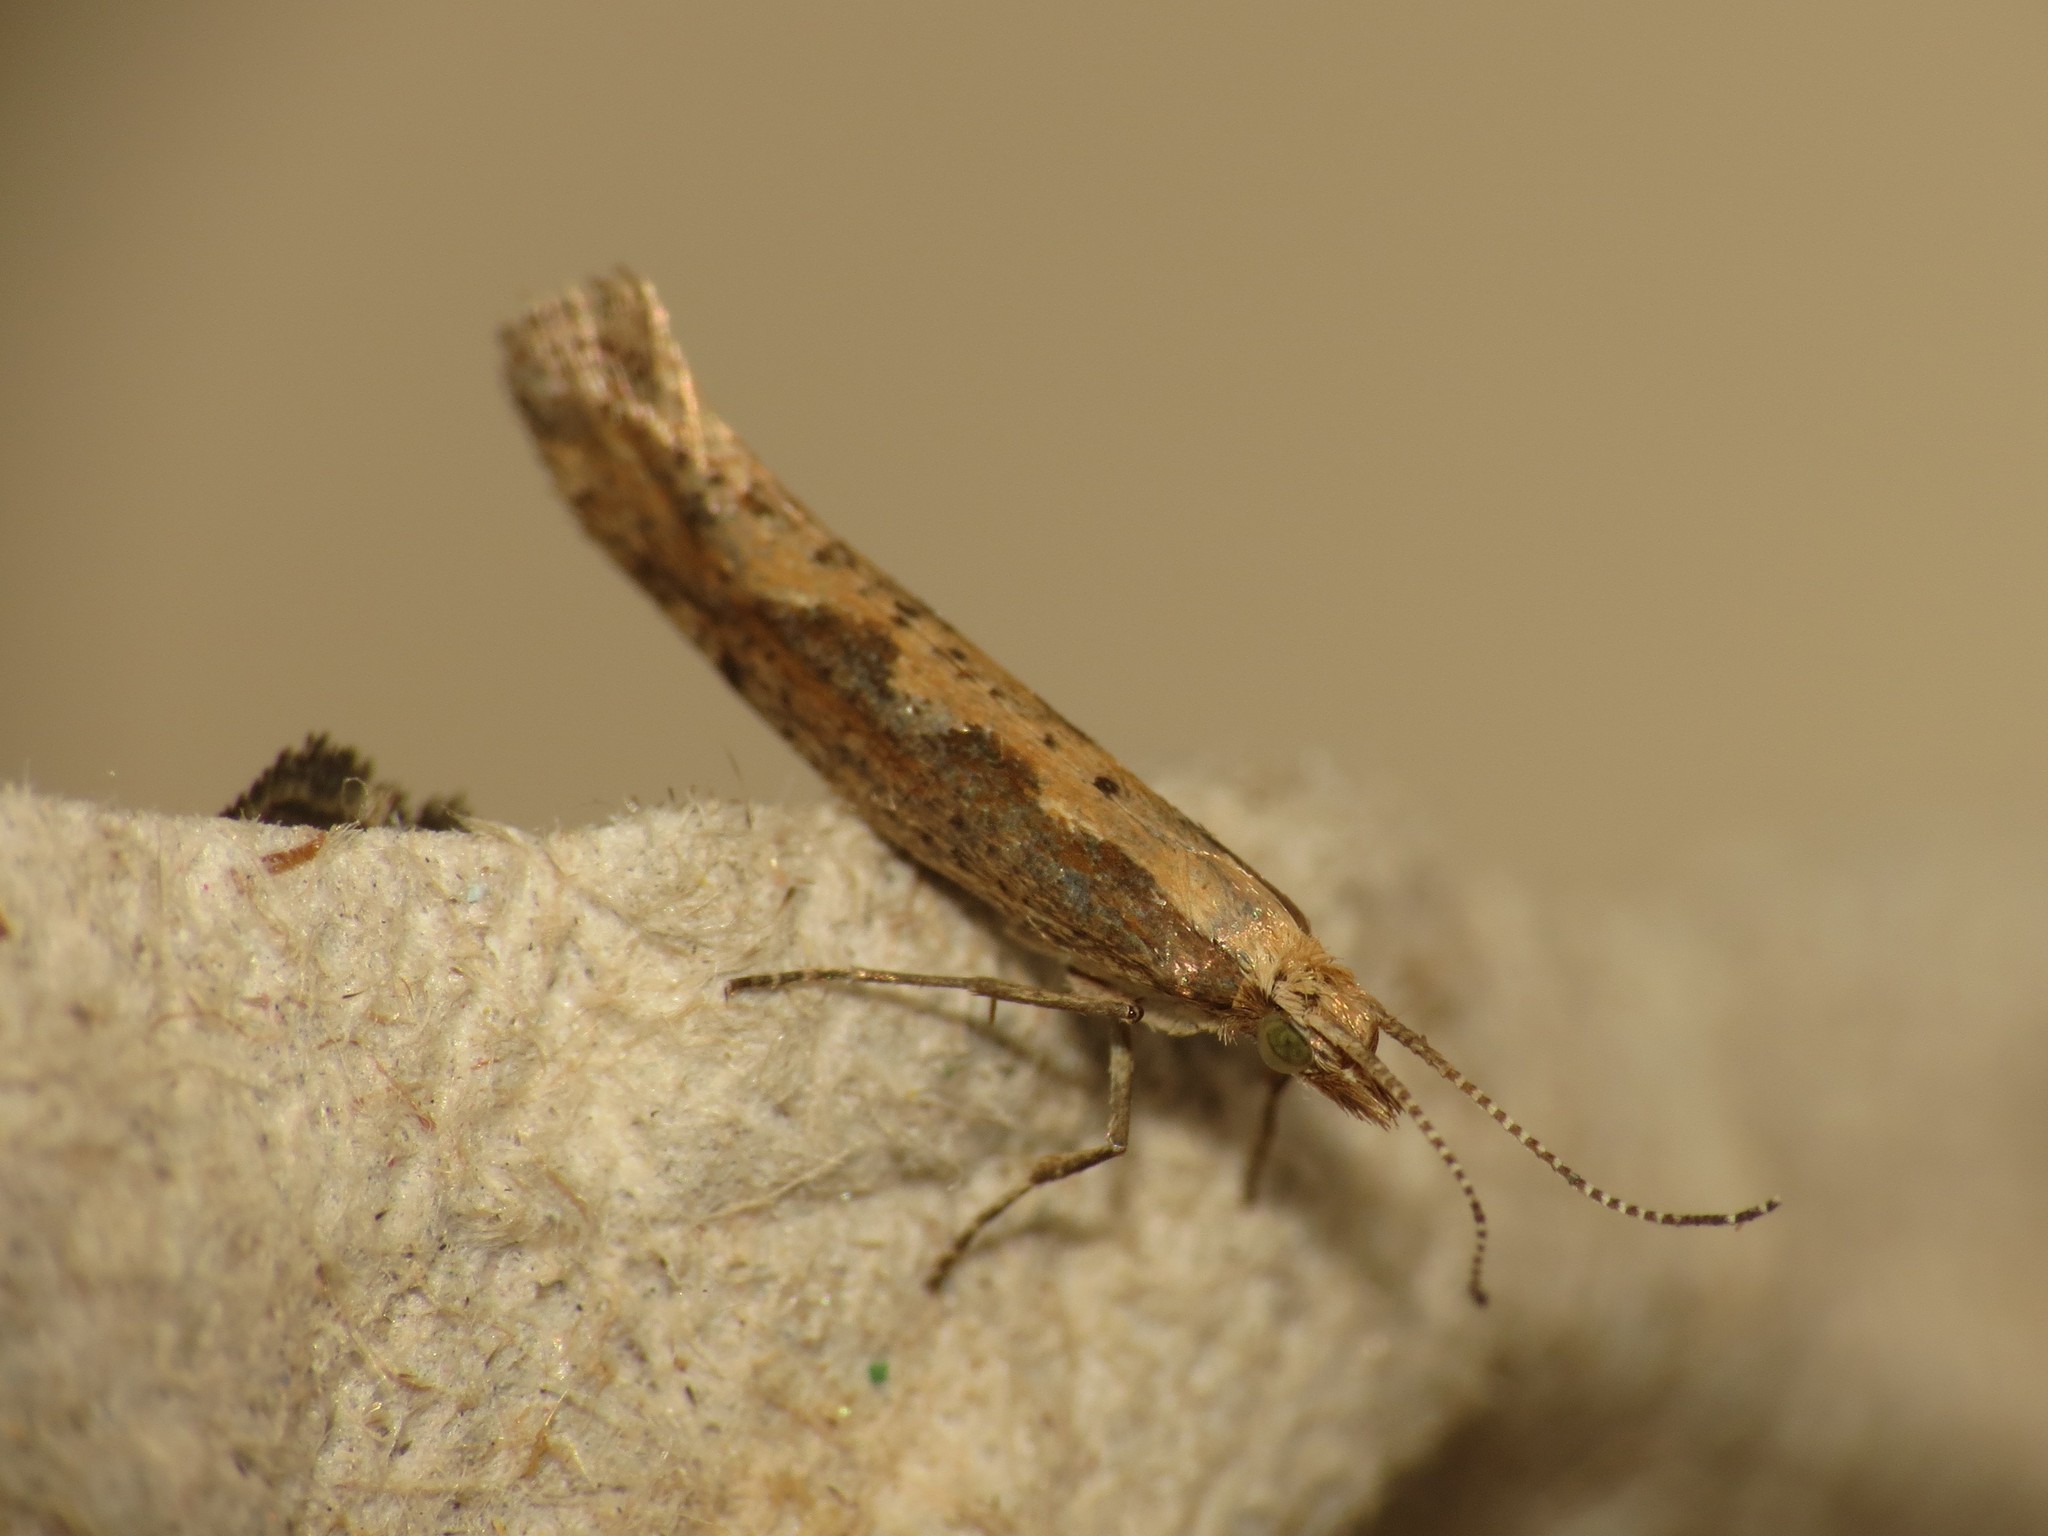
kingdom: Animalia
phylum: Arthropoda
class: Insecta
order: Lepidoptera
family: Plutellidae
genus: Plutella
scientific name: Plutella xylostella
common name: Diamond-back moth
